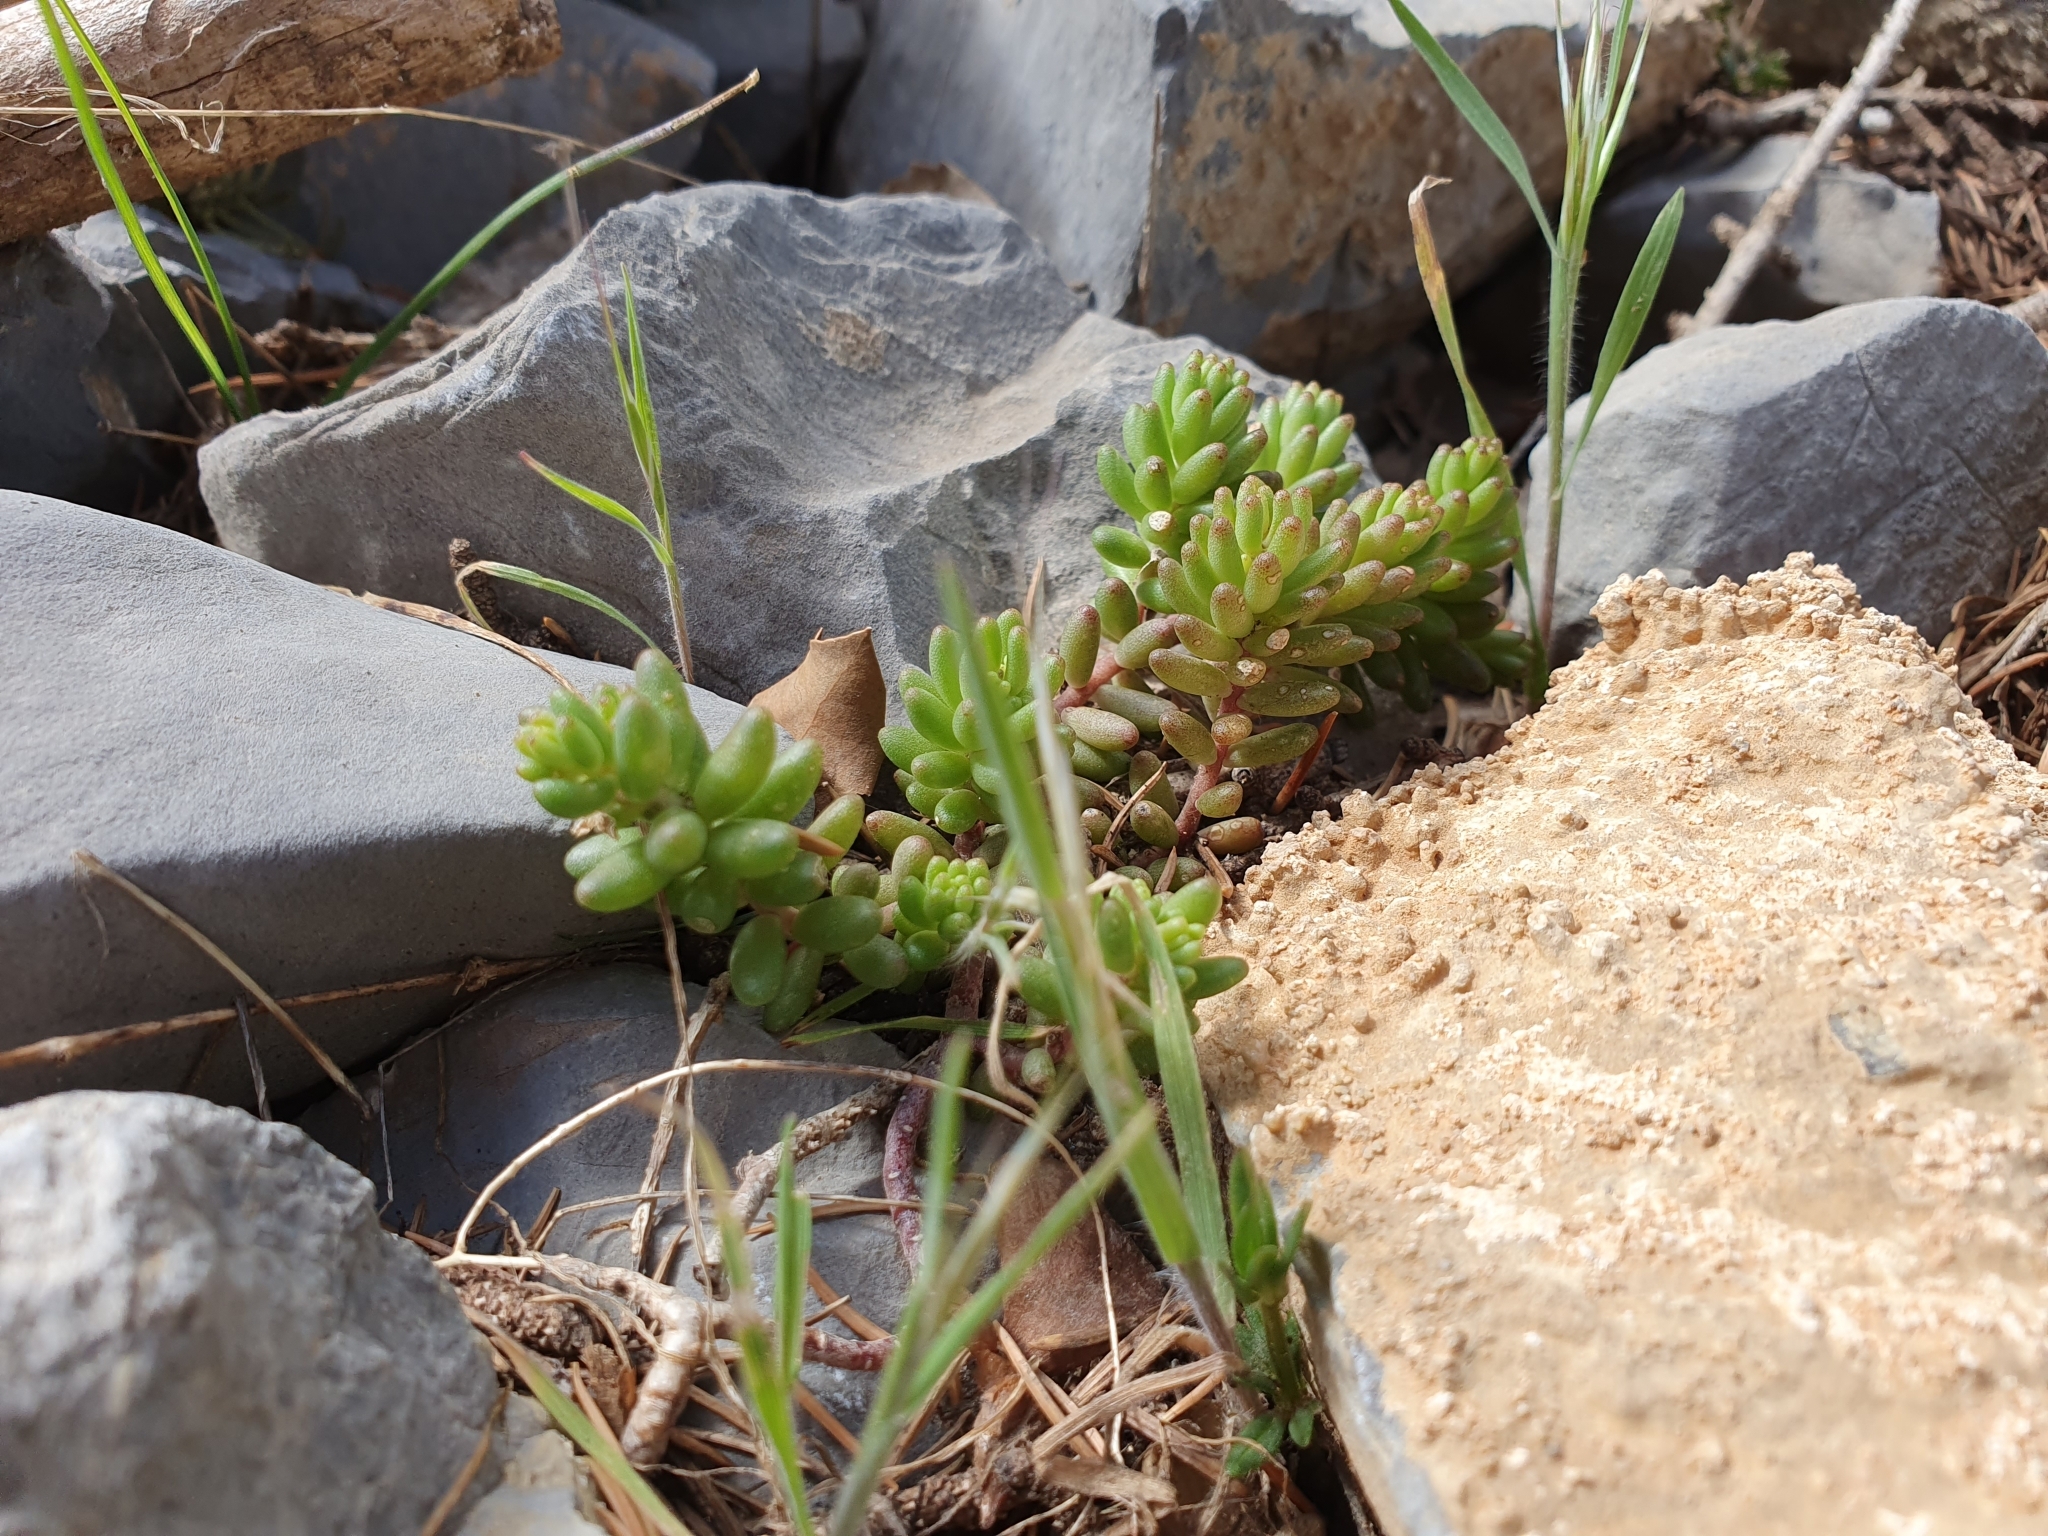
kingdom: Plantae
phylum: Tracheophyta
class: Magnoliopsida
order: Saxifragales
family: Crassulaceae
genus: Sedum
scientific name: Sedum album
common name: White stonecrop
